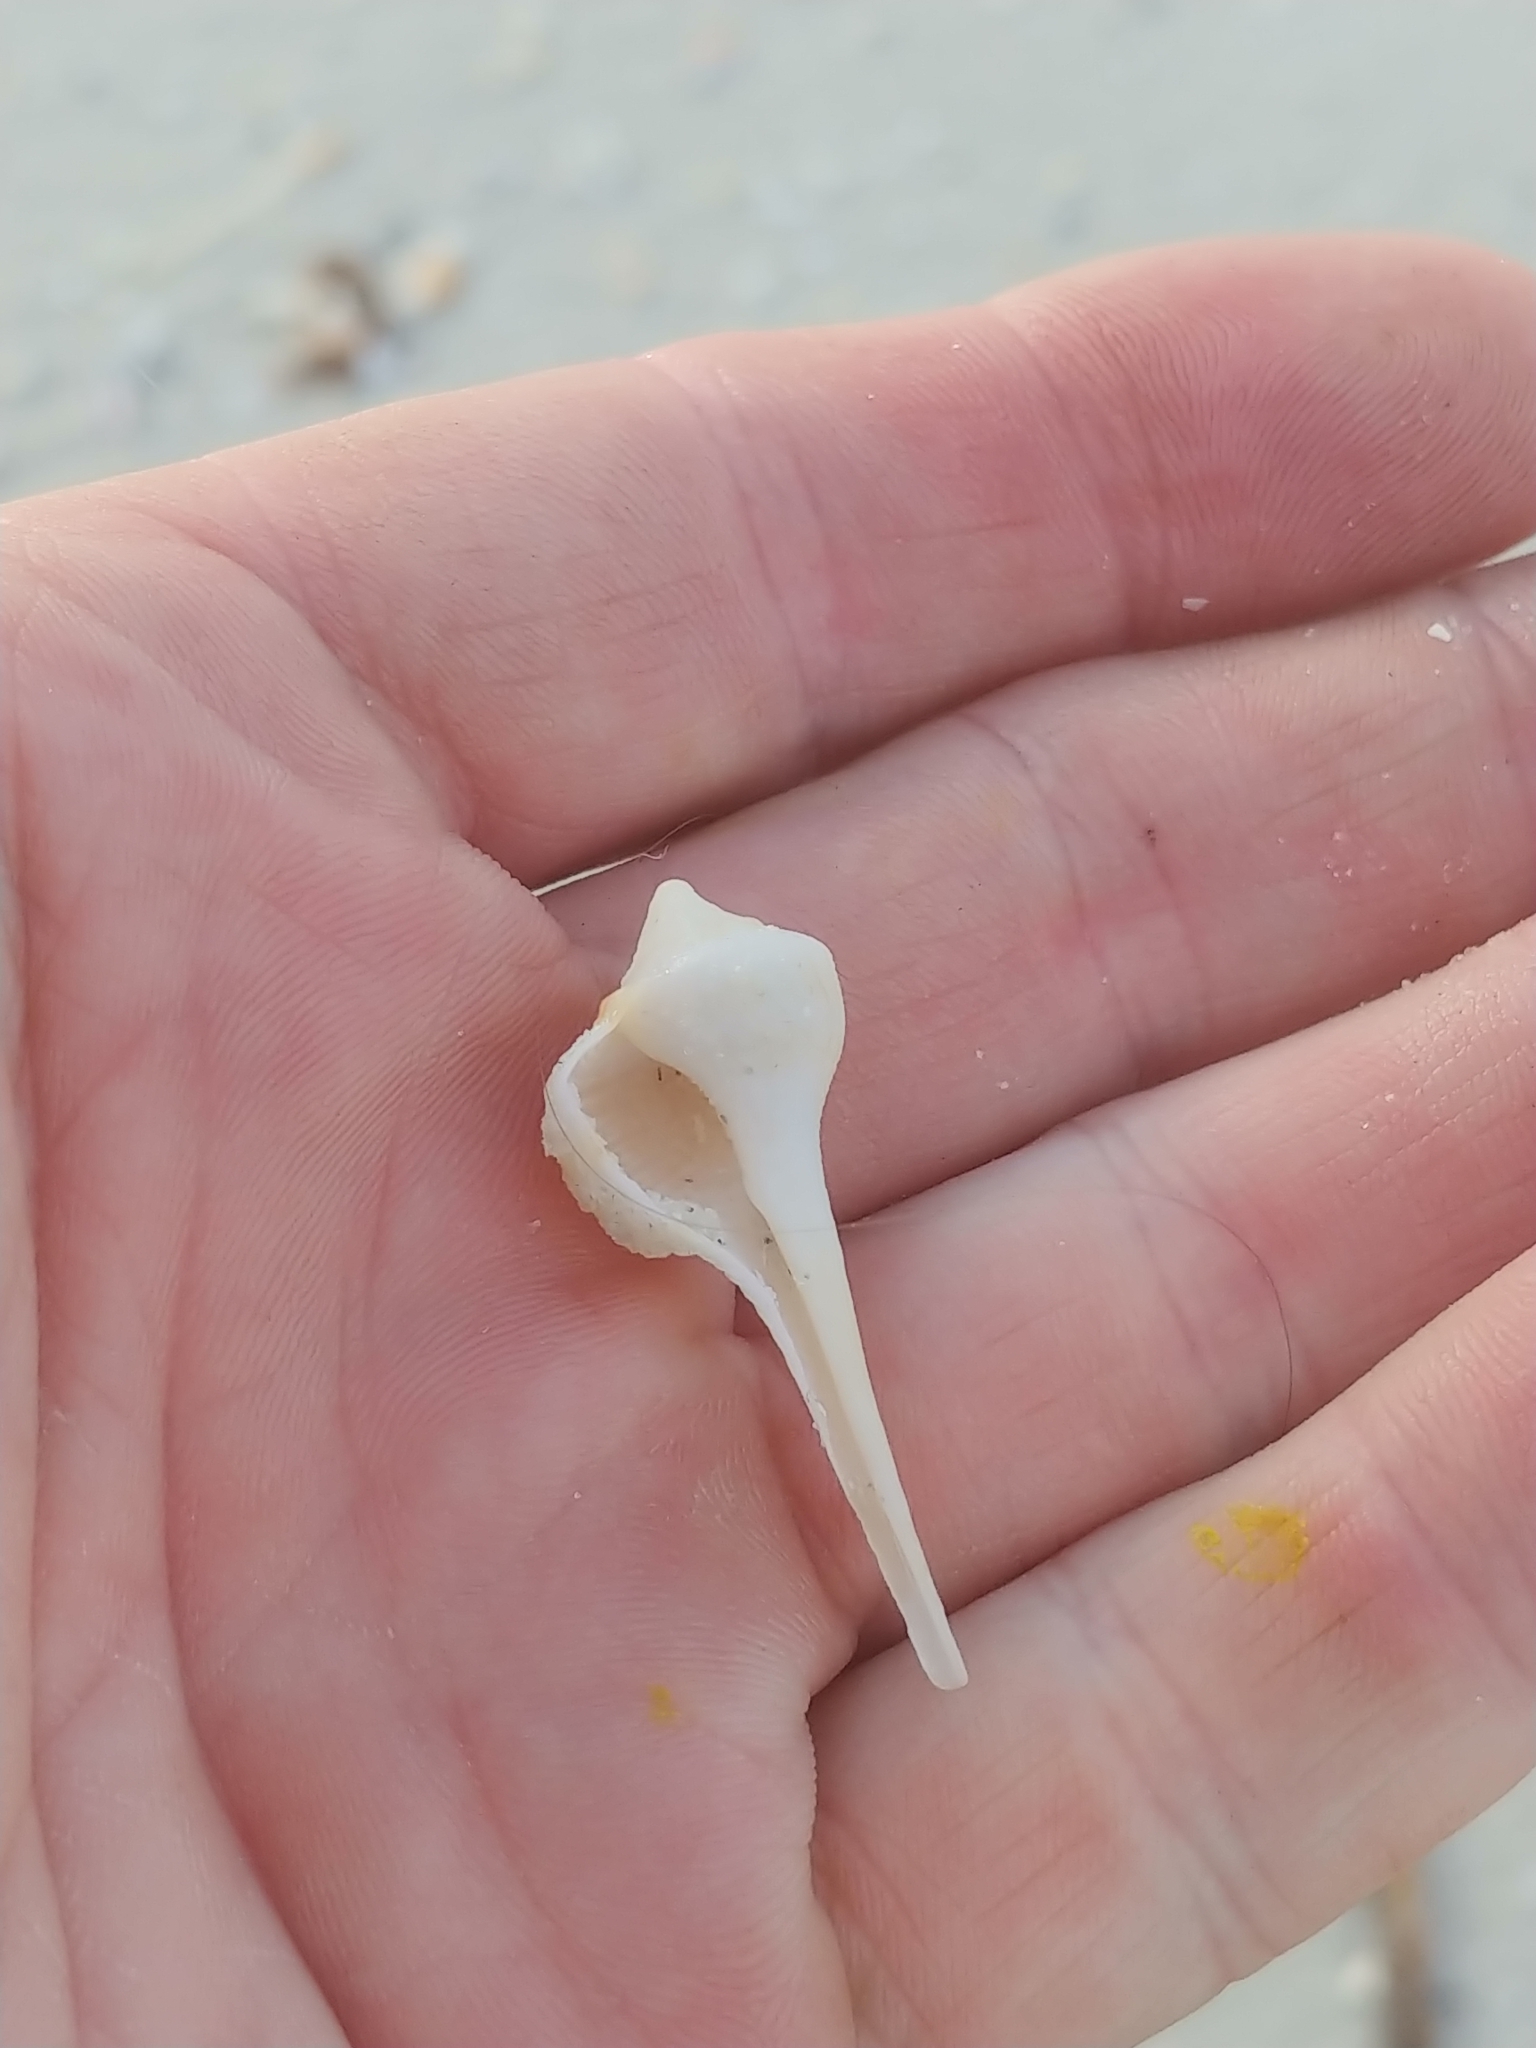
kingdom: Animalia
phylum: Mollusca
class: Gastropoda
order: Neogastropoda
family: Busyconidae
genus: Sinistrofulgur
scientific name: Sinistrofulgur sinistrum
